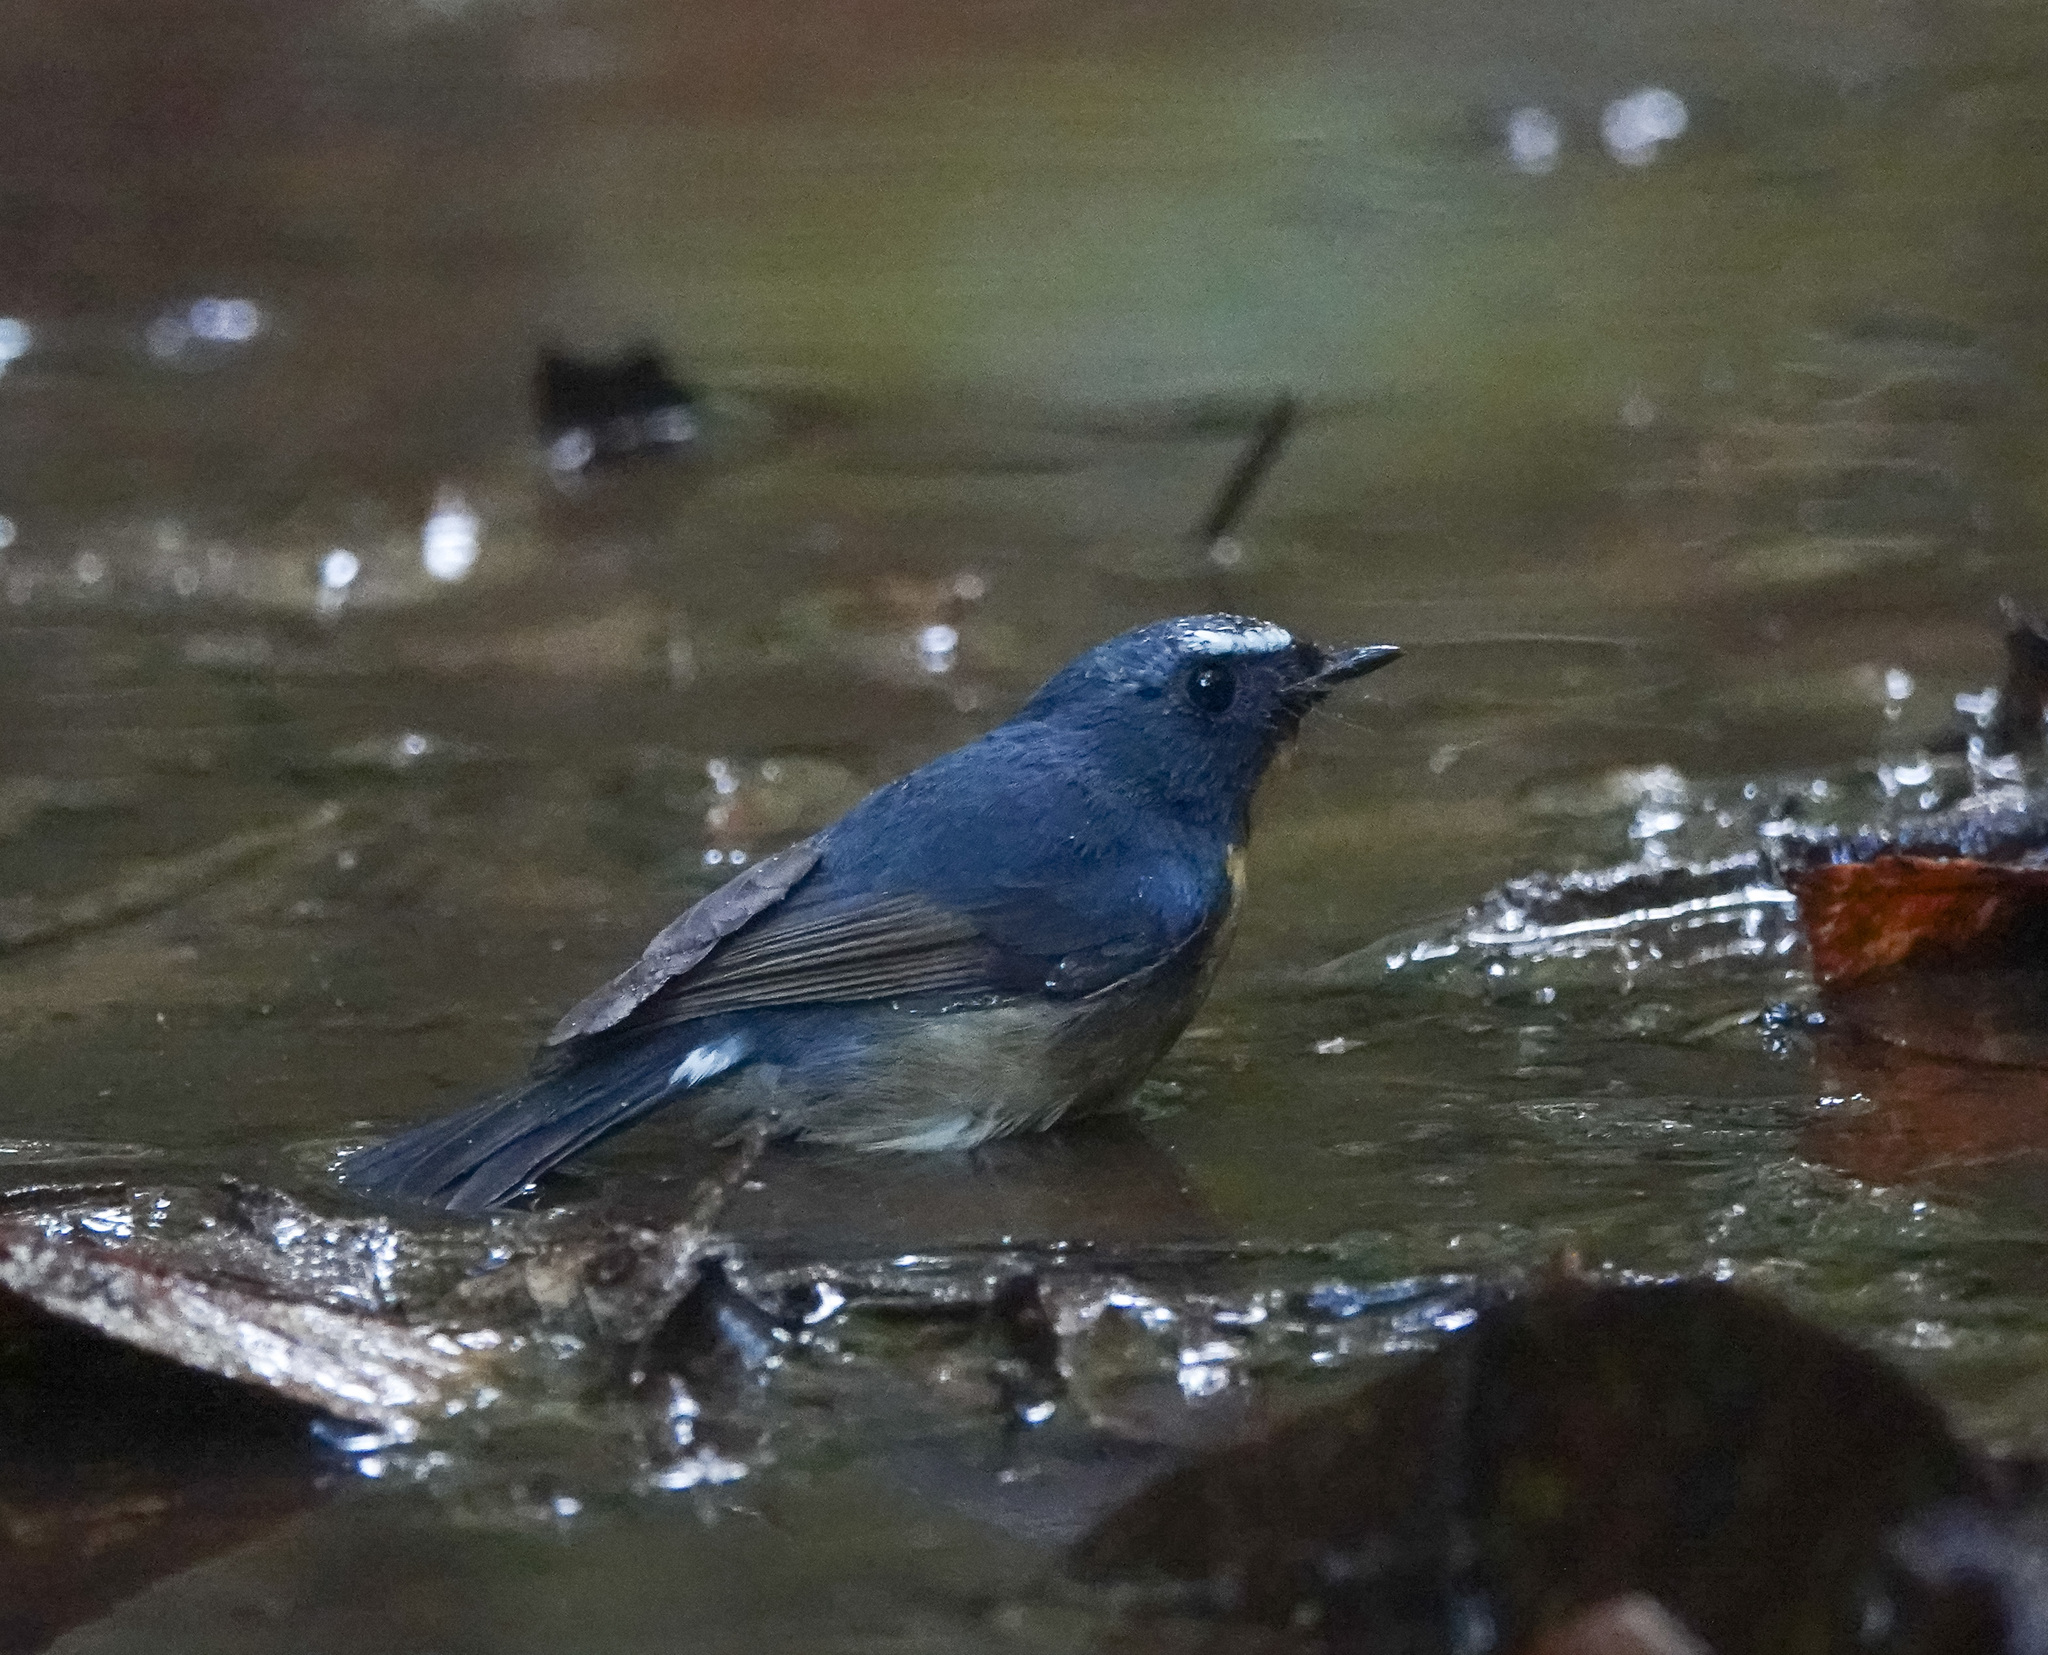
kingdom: Animalia
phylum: Chordata
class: Aves
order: Passeriformes
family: Muscicapidae
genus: Ficedula
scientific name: Ficedula hyperythra
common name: Snowy-browed flycatcher
